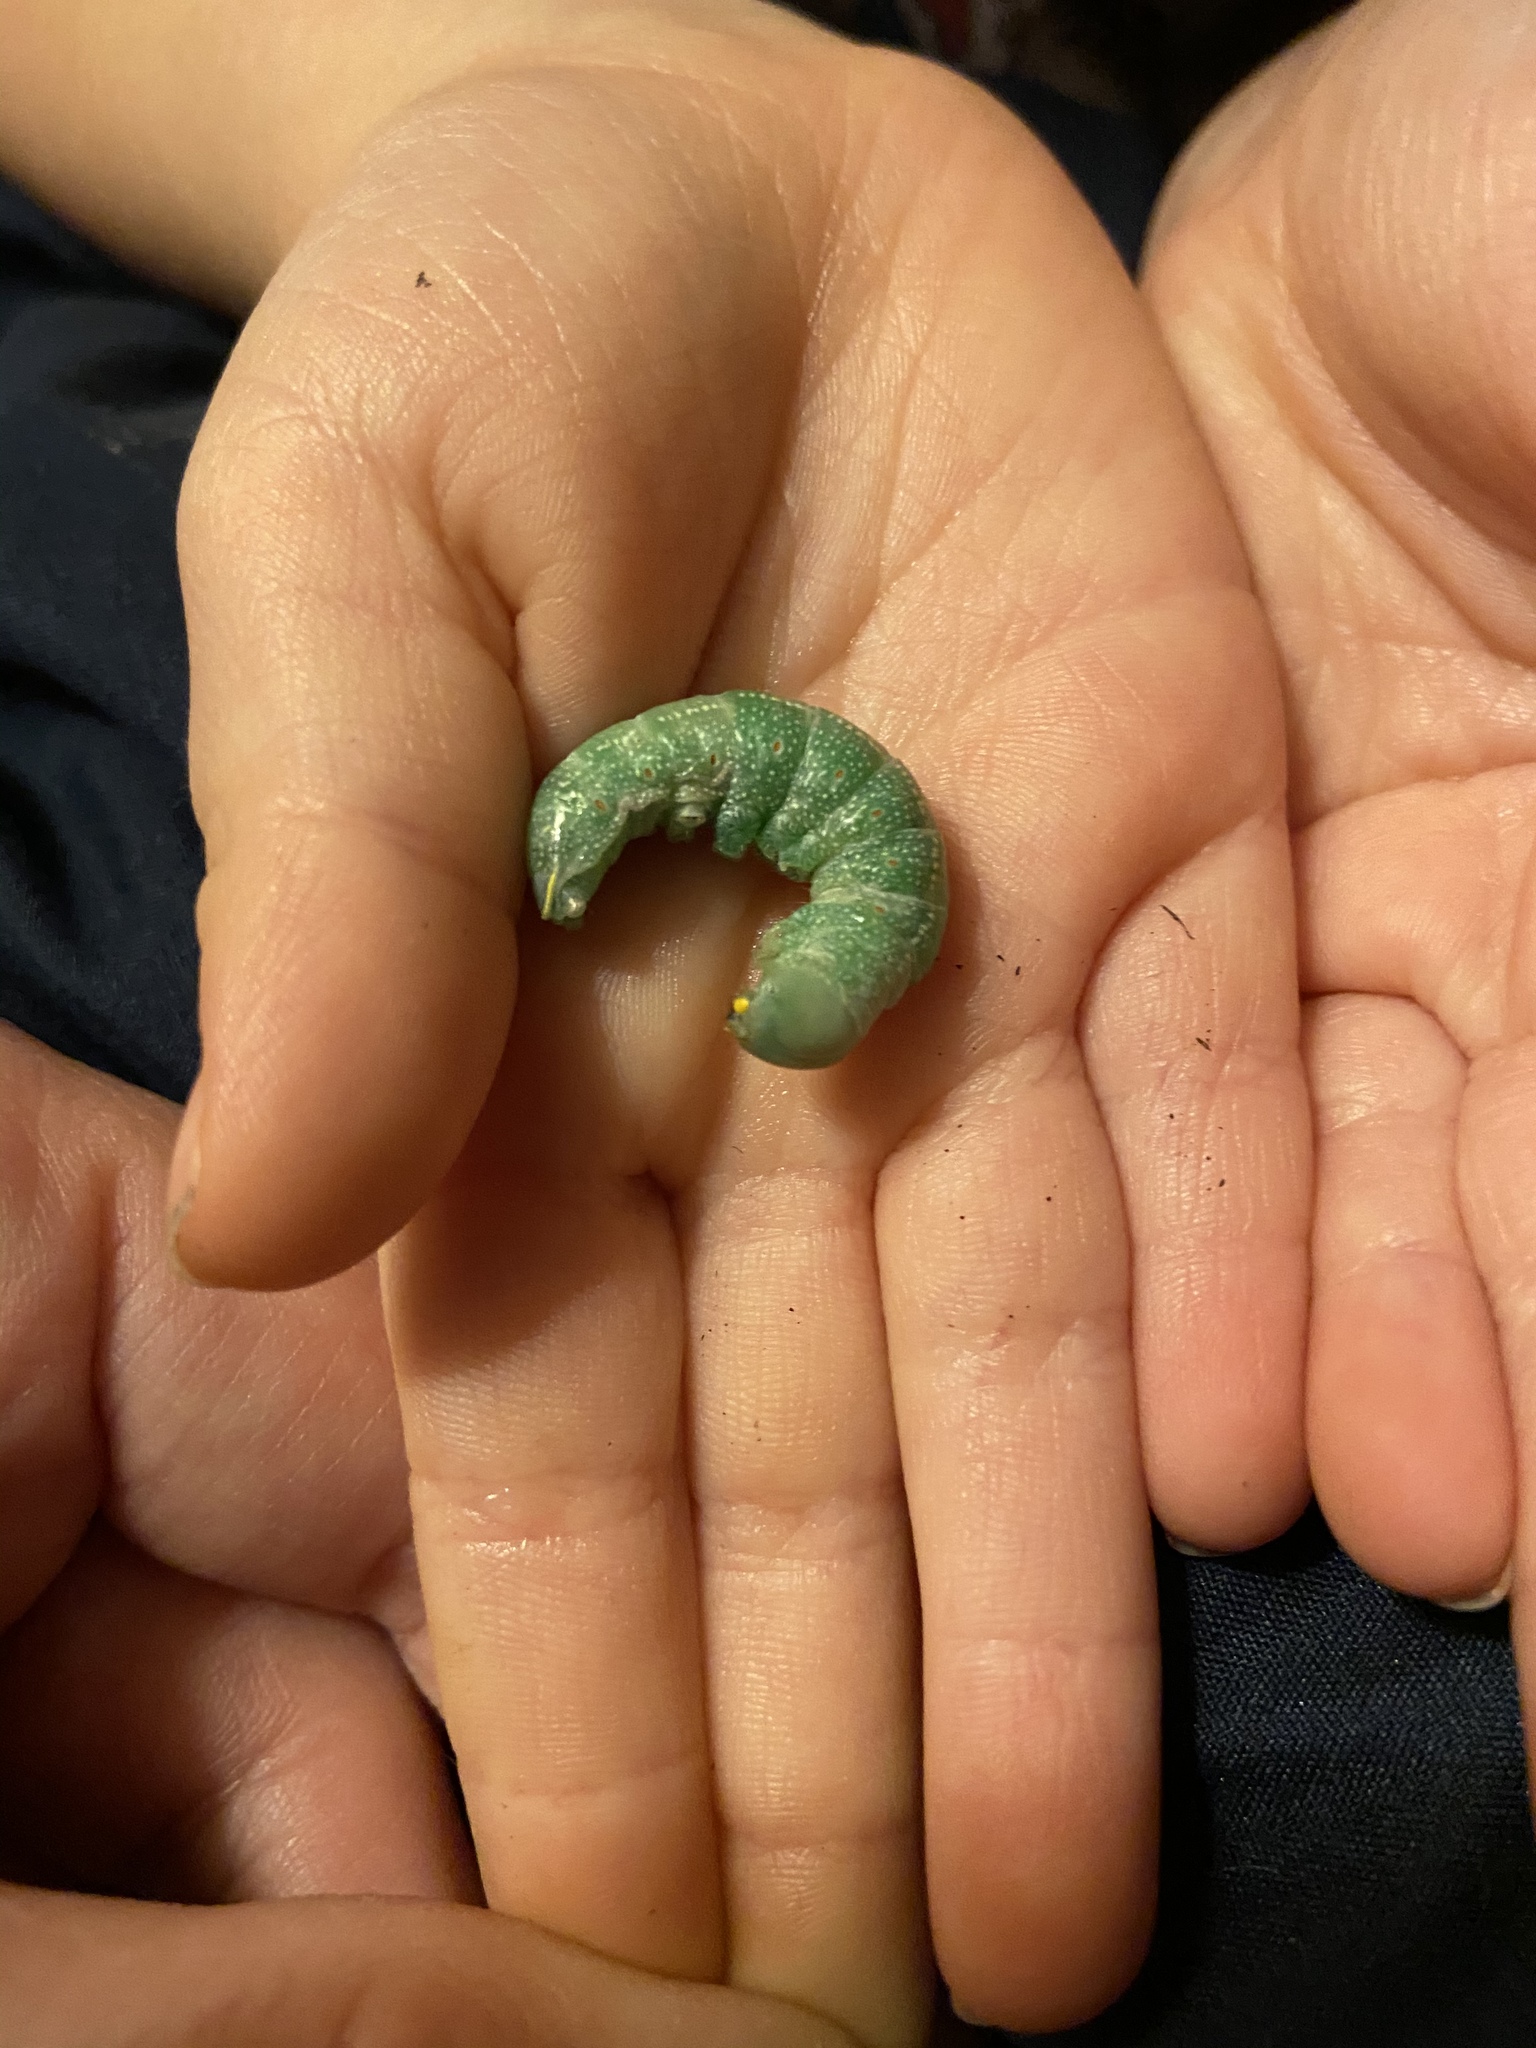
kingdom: Animalia
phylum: Arthropoda
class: Insecta
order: Lepidoptera
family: Notodontidae
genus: Nadata
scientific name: Nadata gibbosa
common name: White-dotted prominent
